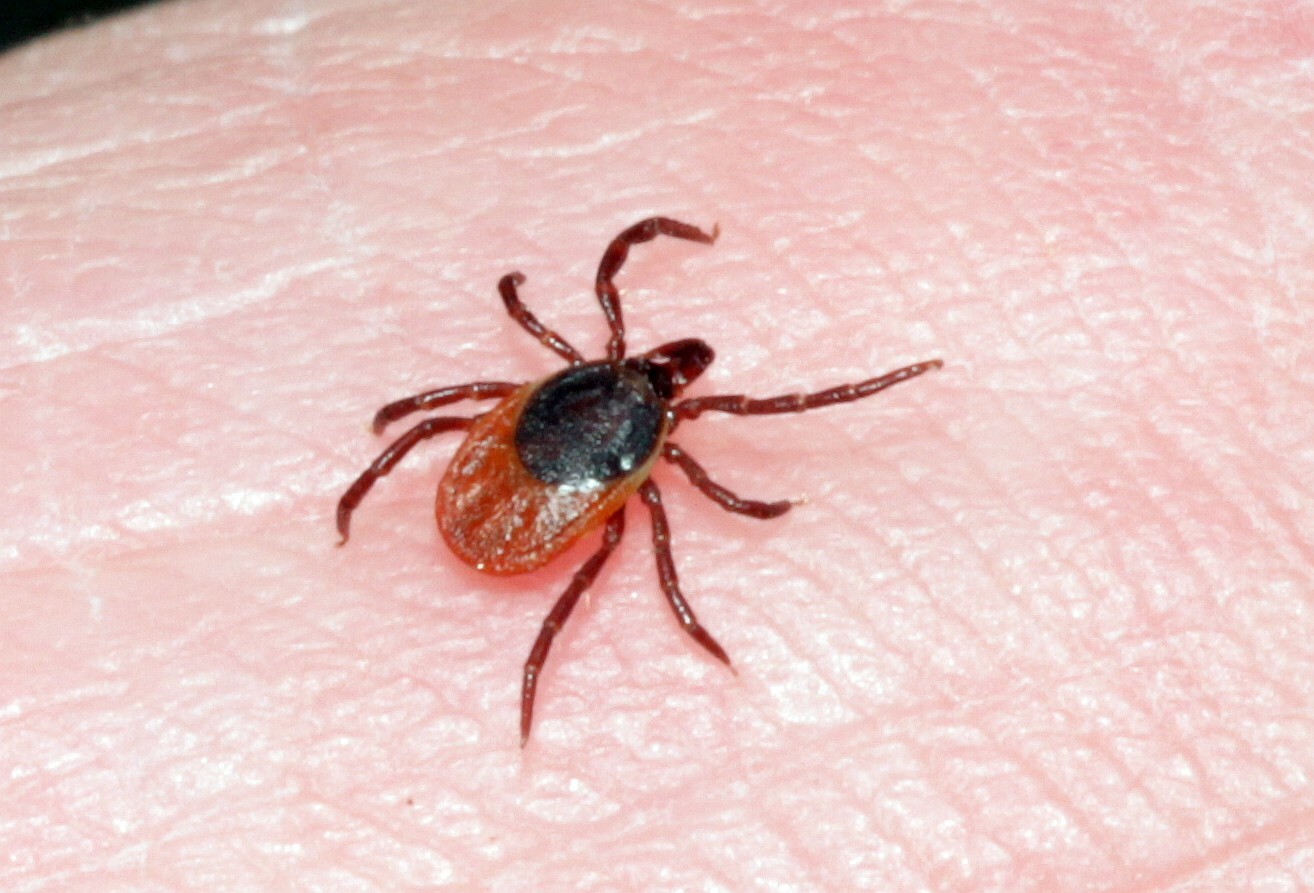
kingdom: Animalia
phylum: Arthropoda
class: Arachnida
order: Ixodida
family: Ixodidae
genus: Ixodes
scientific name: Ixodes ricinus
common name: Castor bean tick
